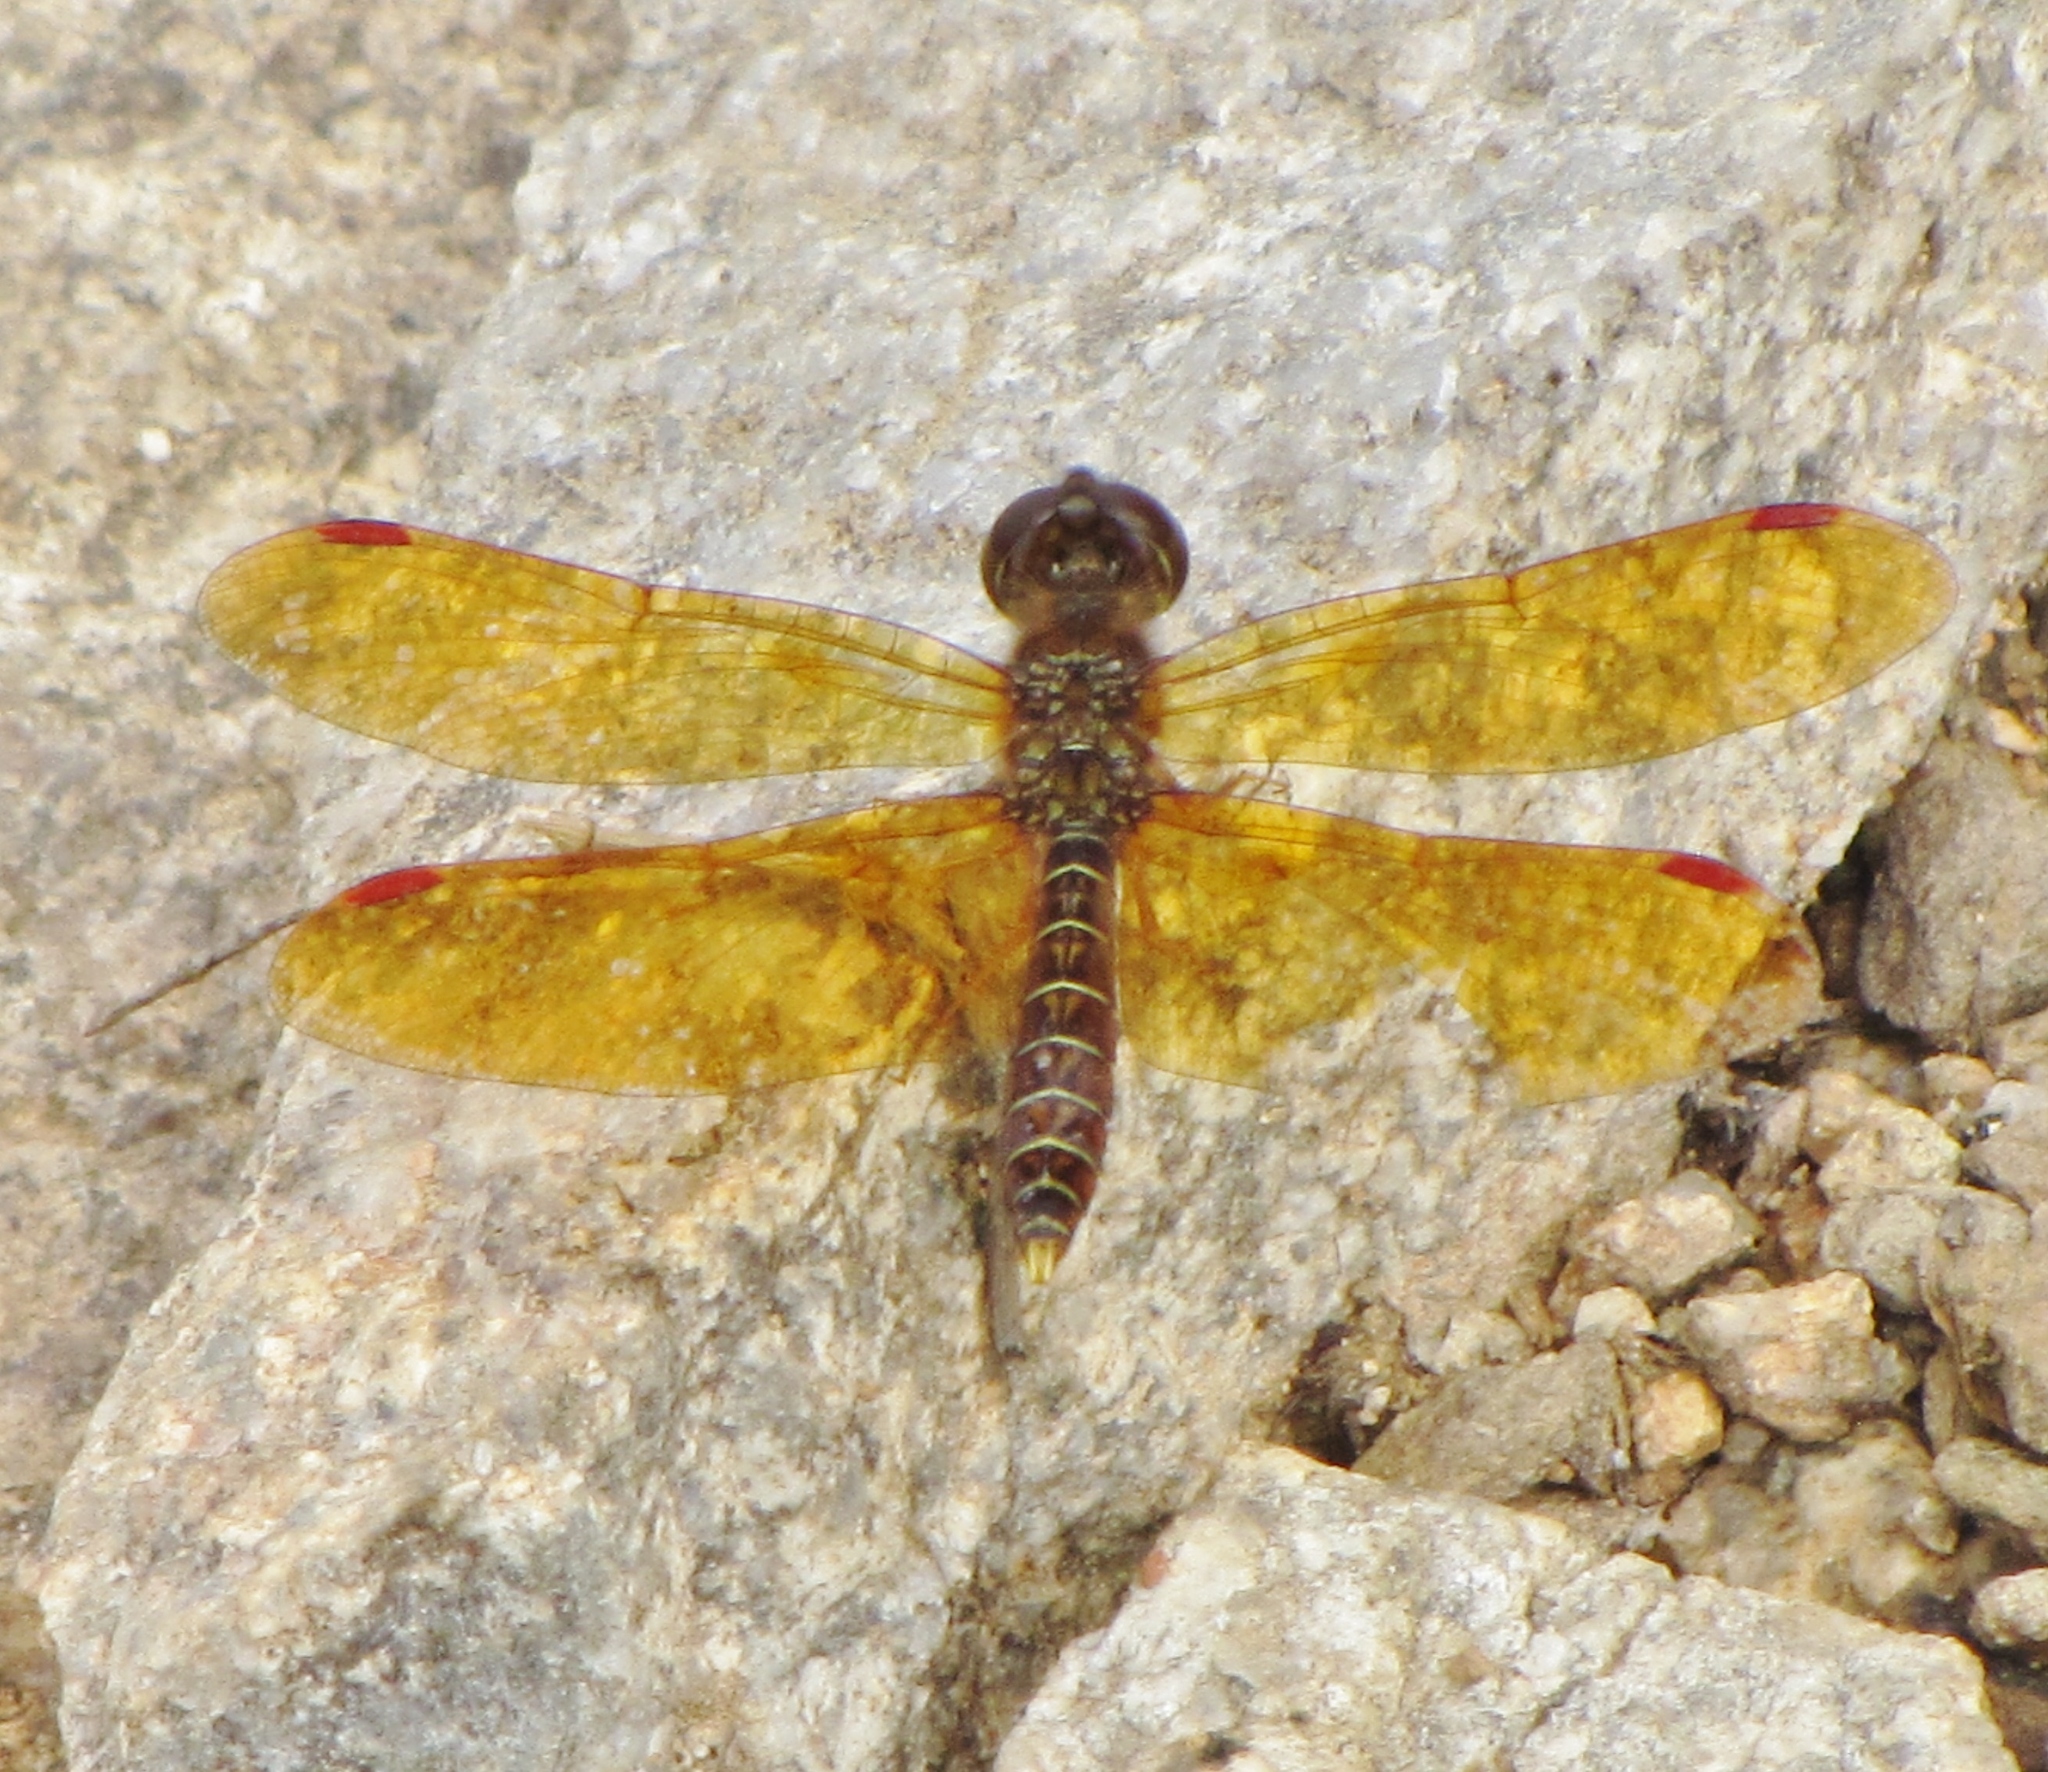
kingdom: Animalia
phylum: Arthropoda
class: Insecta
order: Odonata
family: Libellulidae
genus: Perithemis
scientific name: Perithemis tenera
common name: Eastern amberwing
